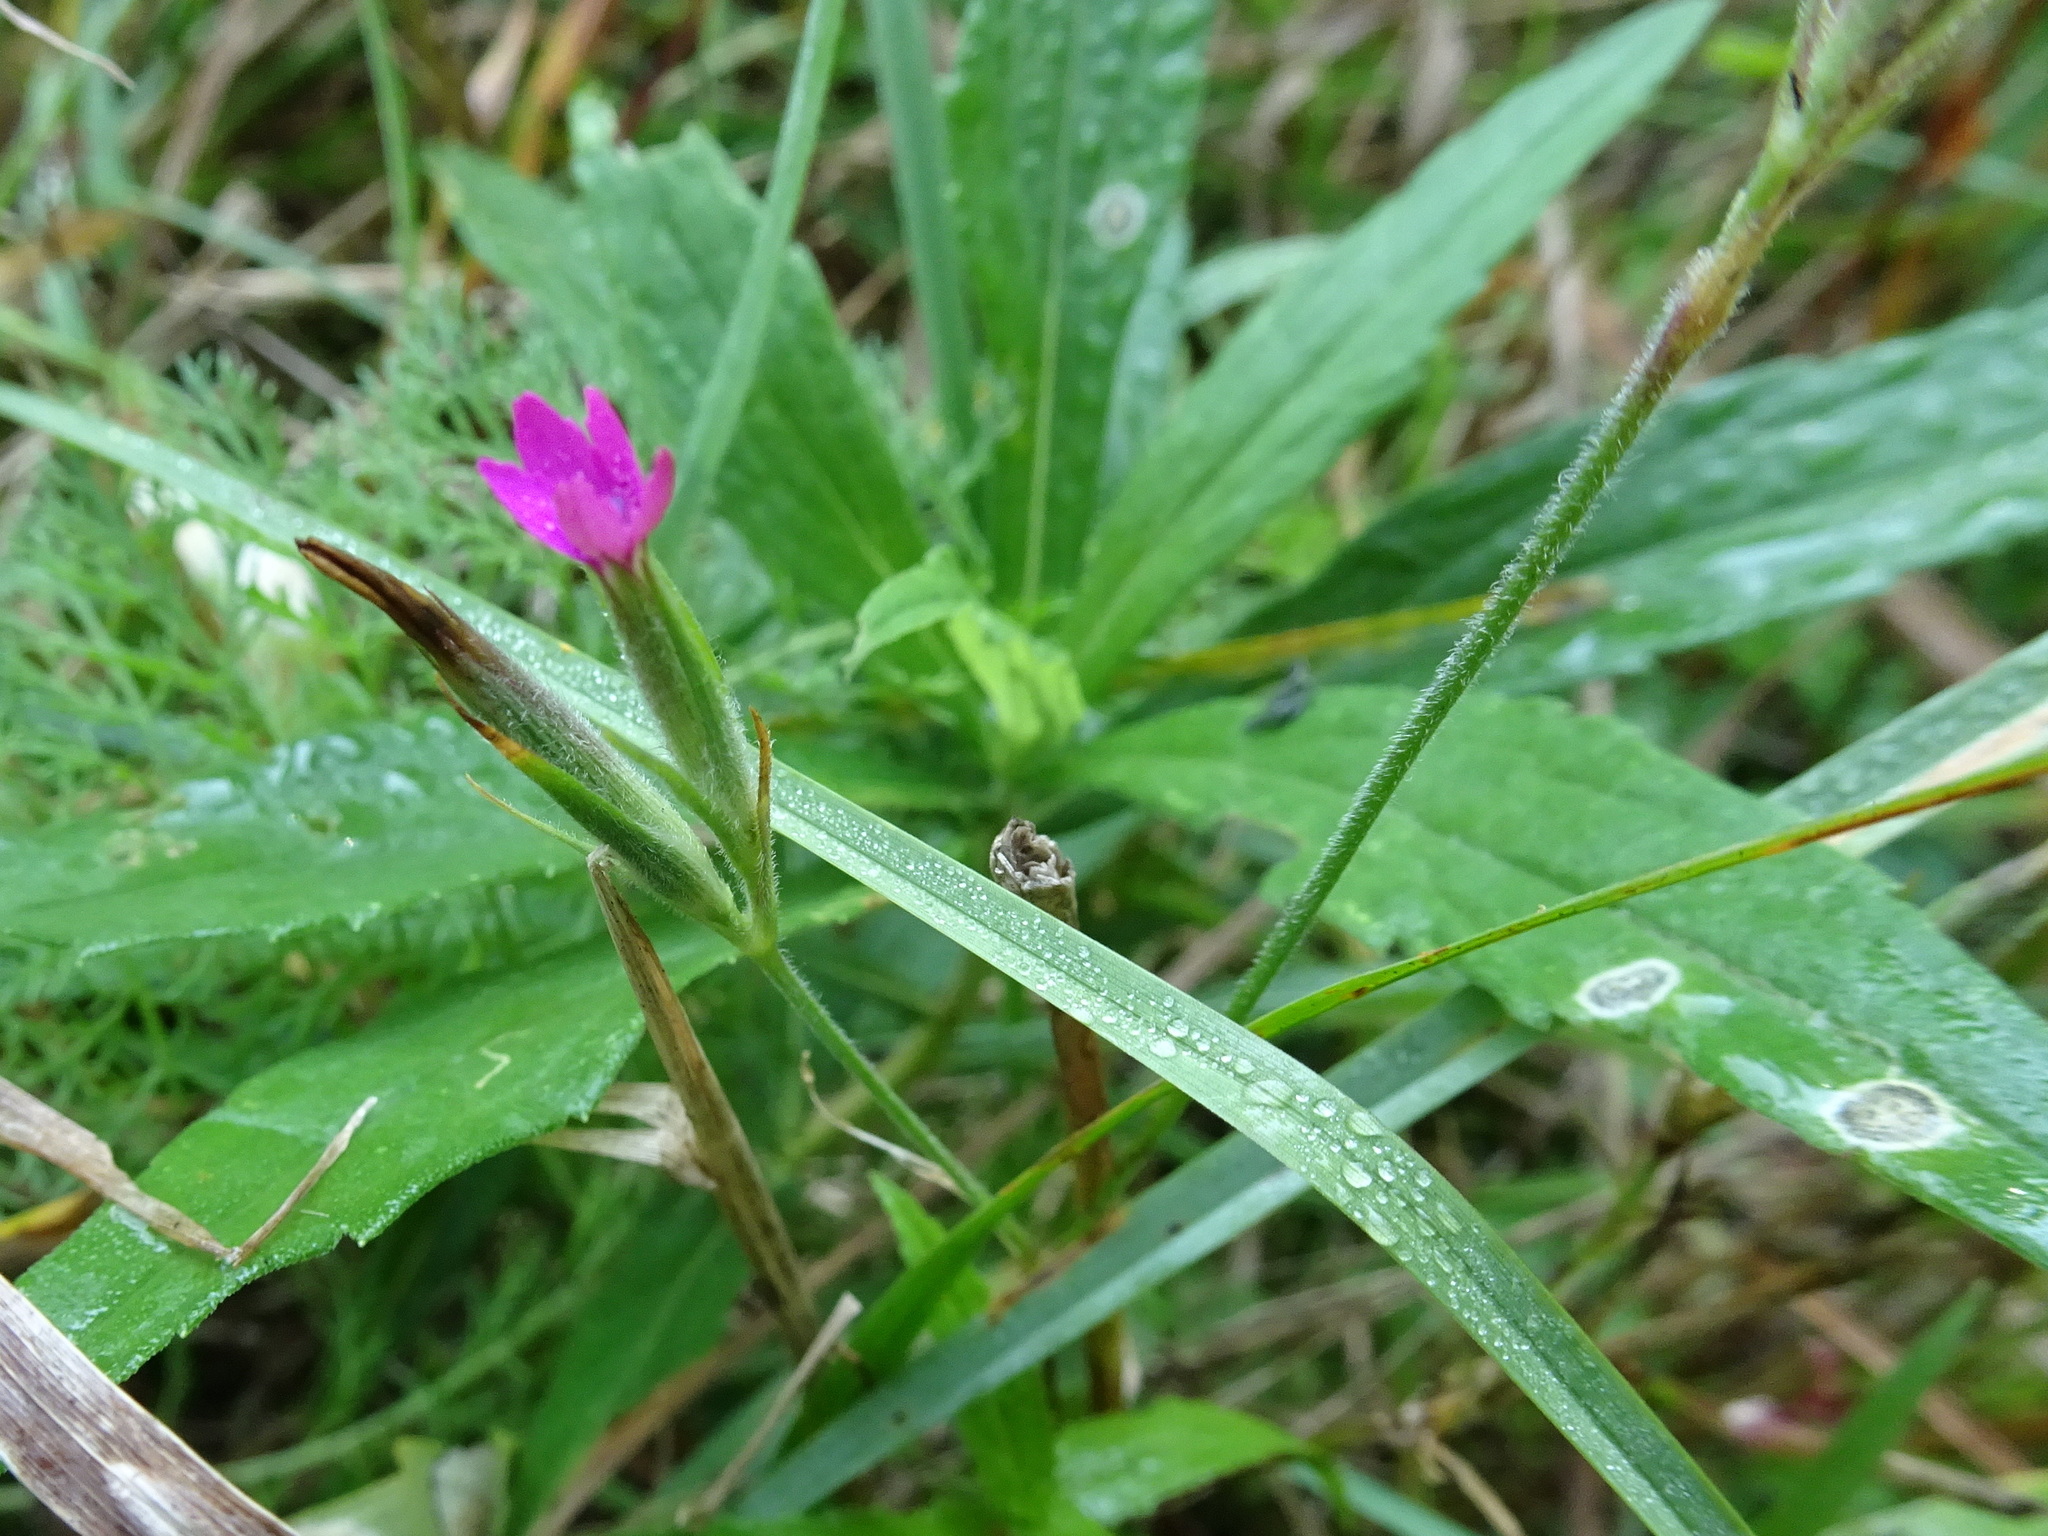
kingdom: Plantae
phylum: Tracheophyta
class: Magnoliopsida
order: Caryophyllales
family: Caryophyllaceae
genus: Dianthus
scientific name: Dianthus armeria
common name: Deptford pink
